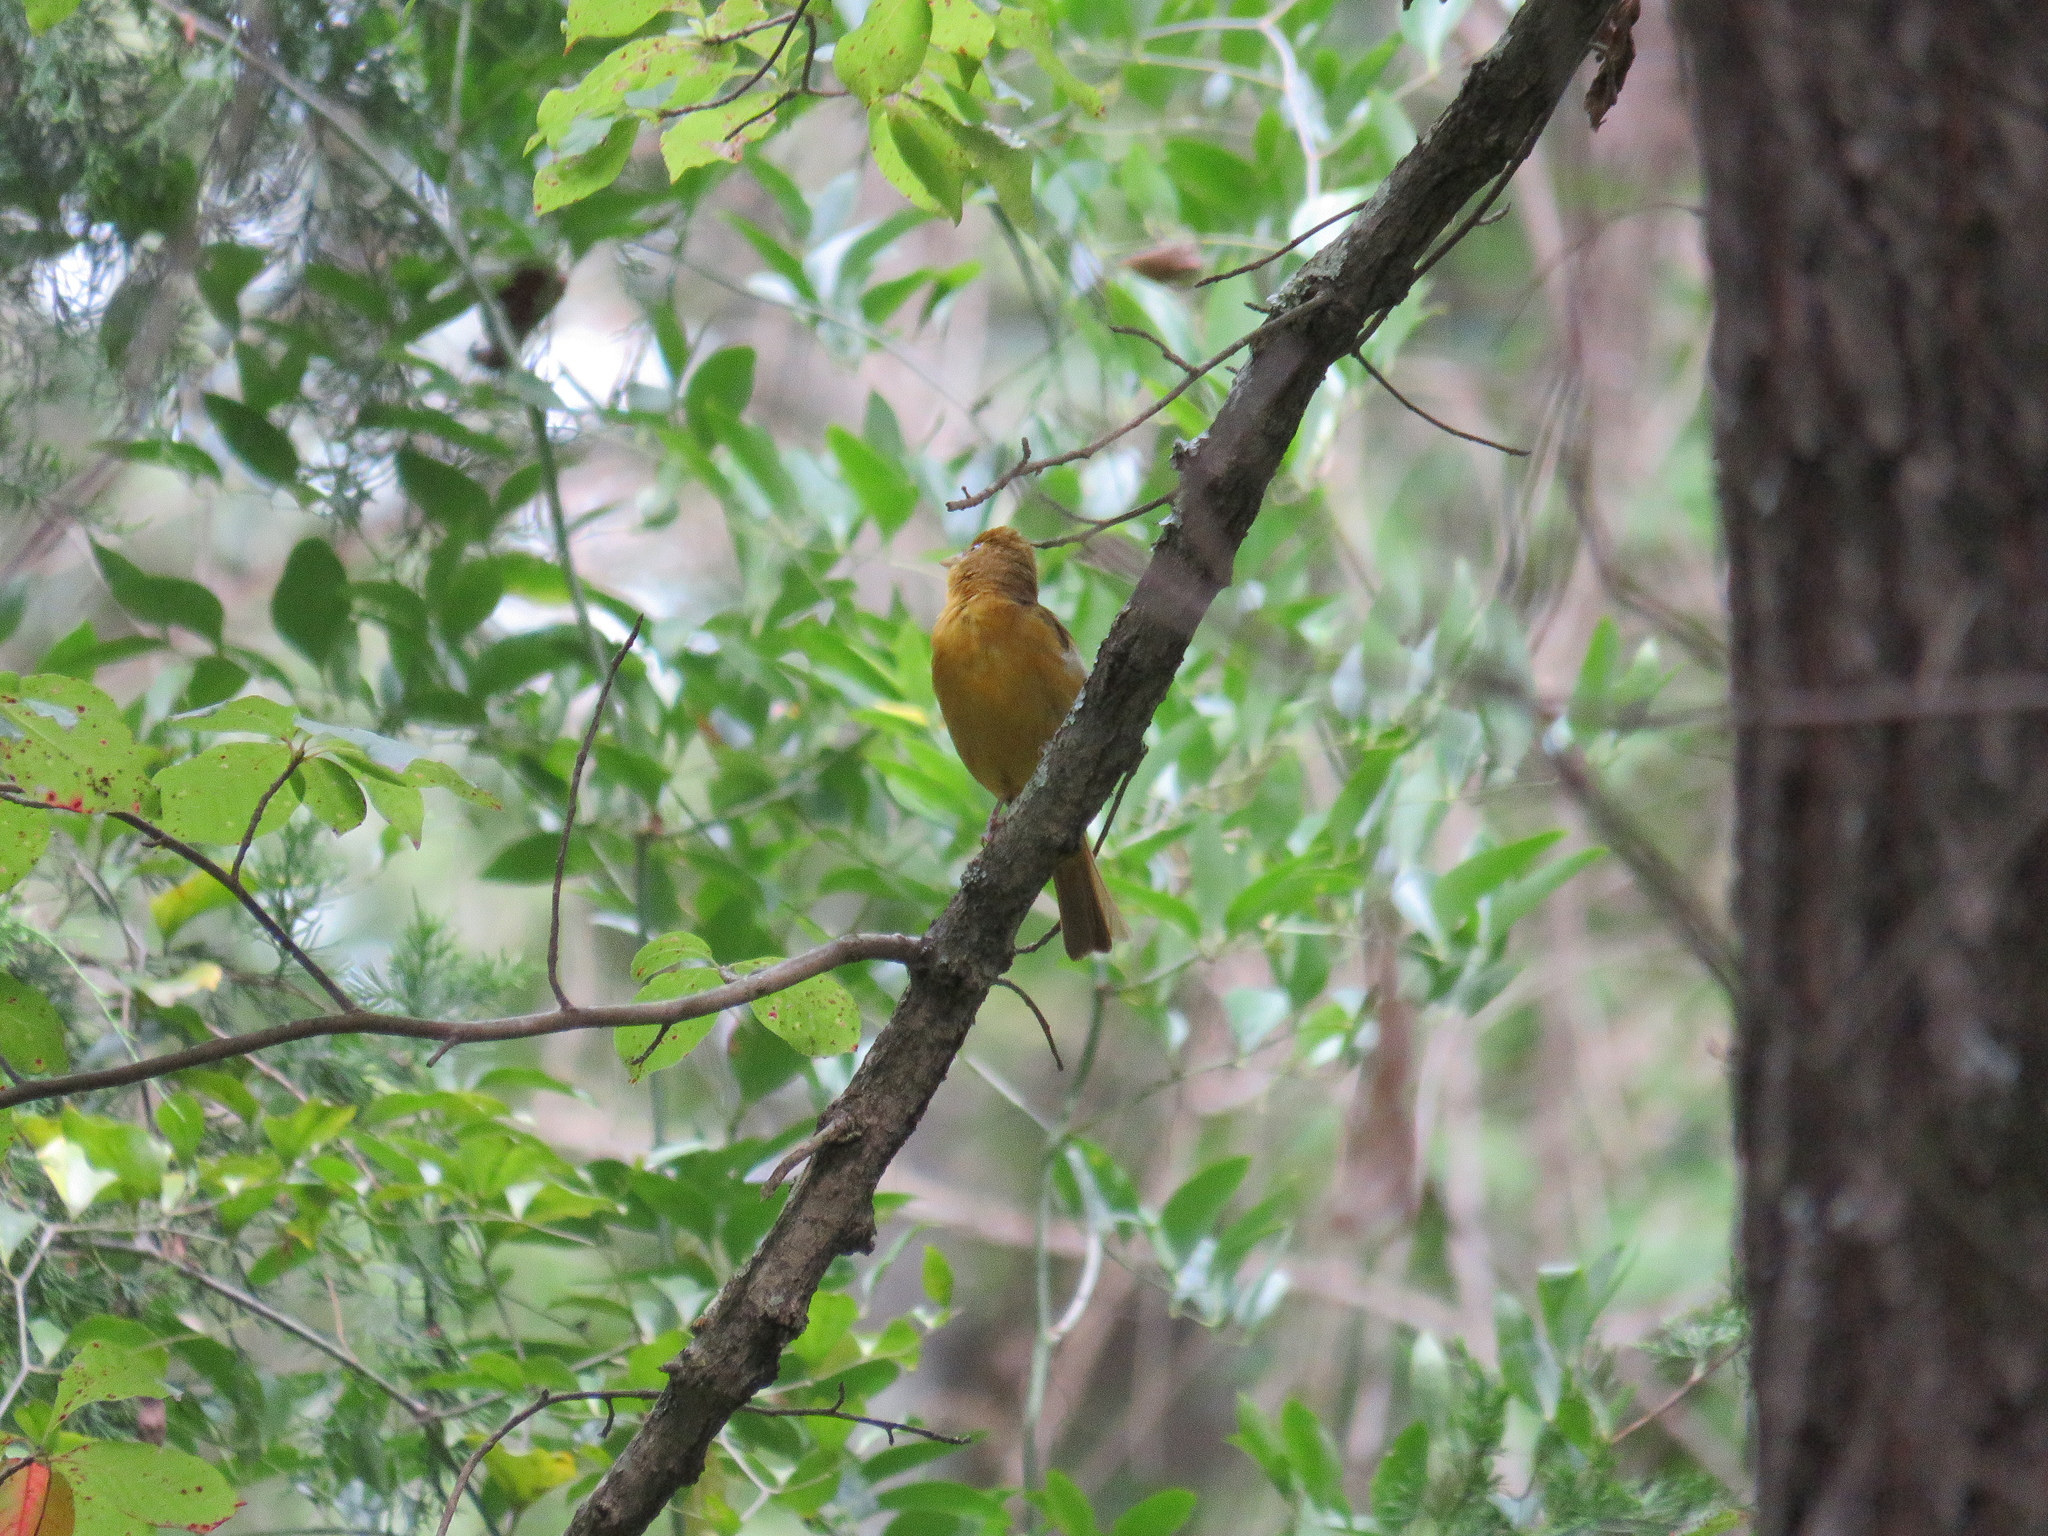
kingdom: Animalia
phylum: Chordata
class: Aves
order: Passeriformes
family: Cardinalidae
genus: Piranga
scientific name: Piranga rubra
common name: Summer tanager
